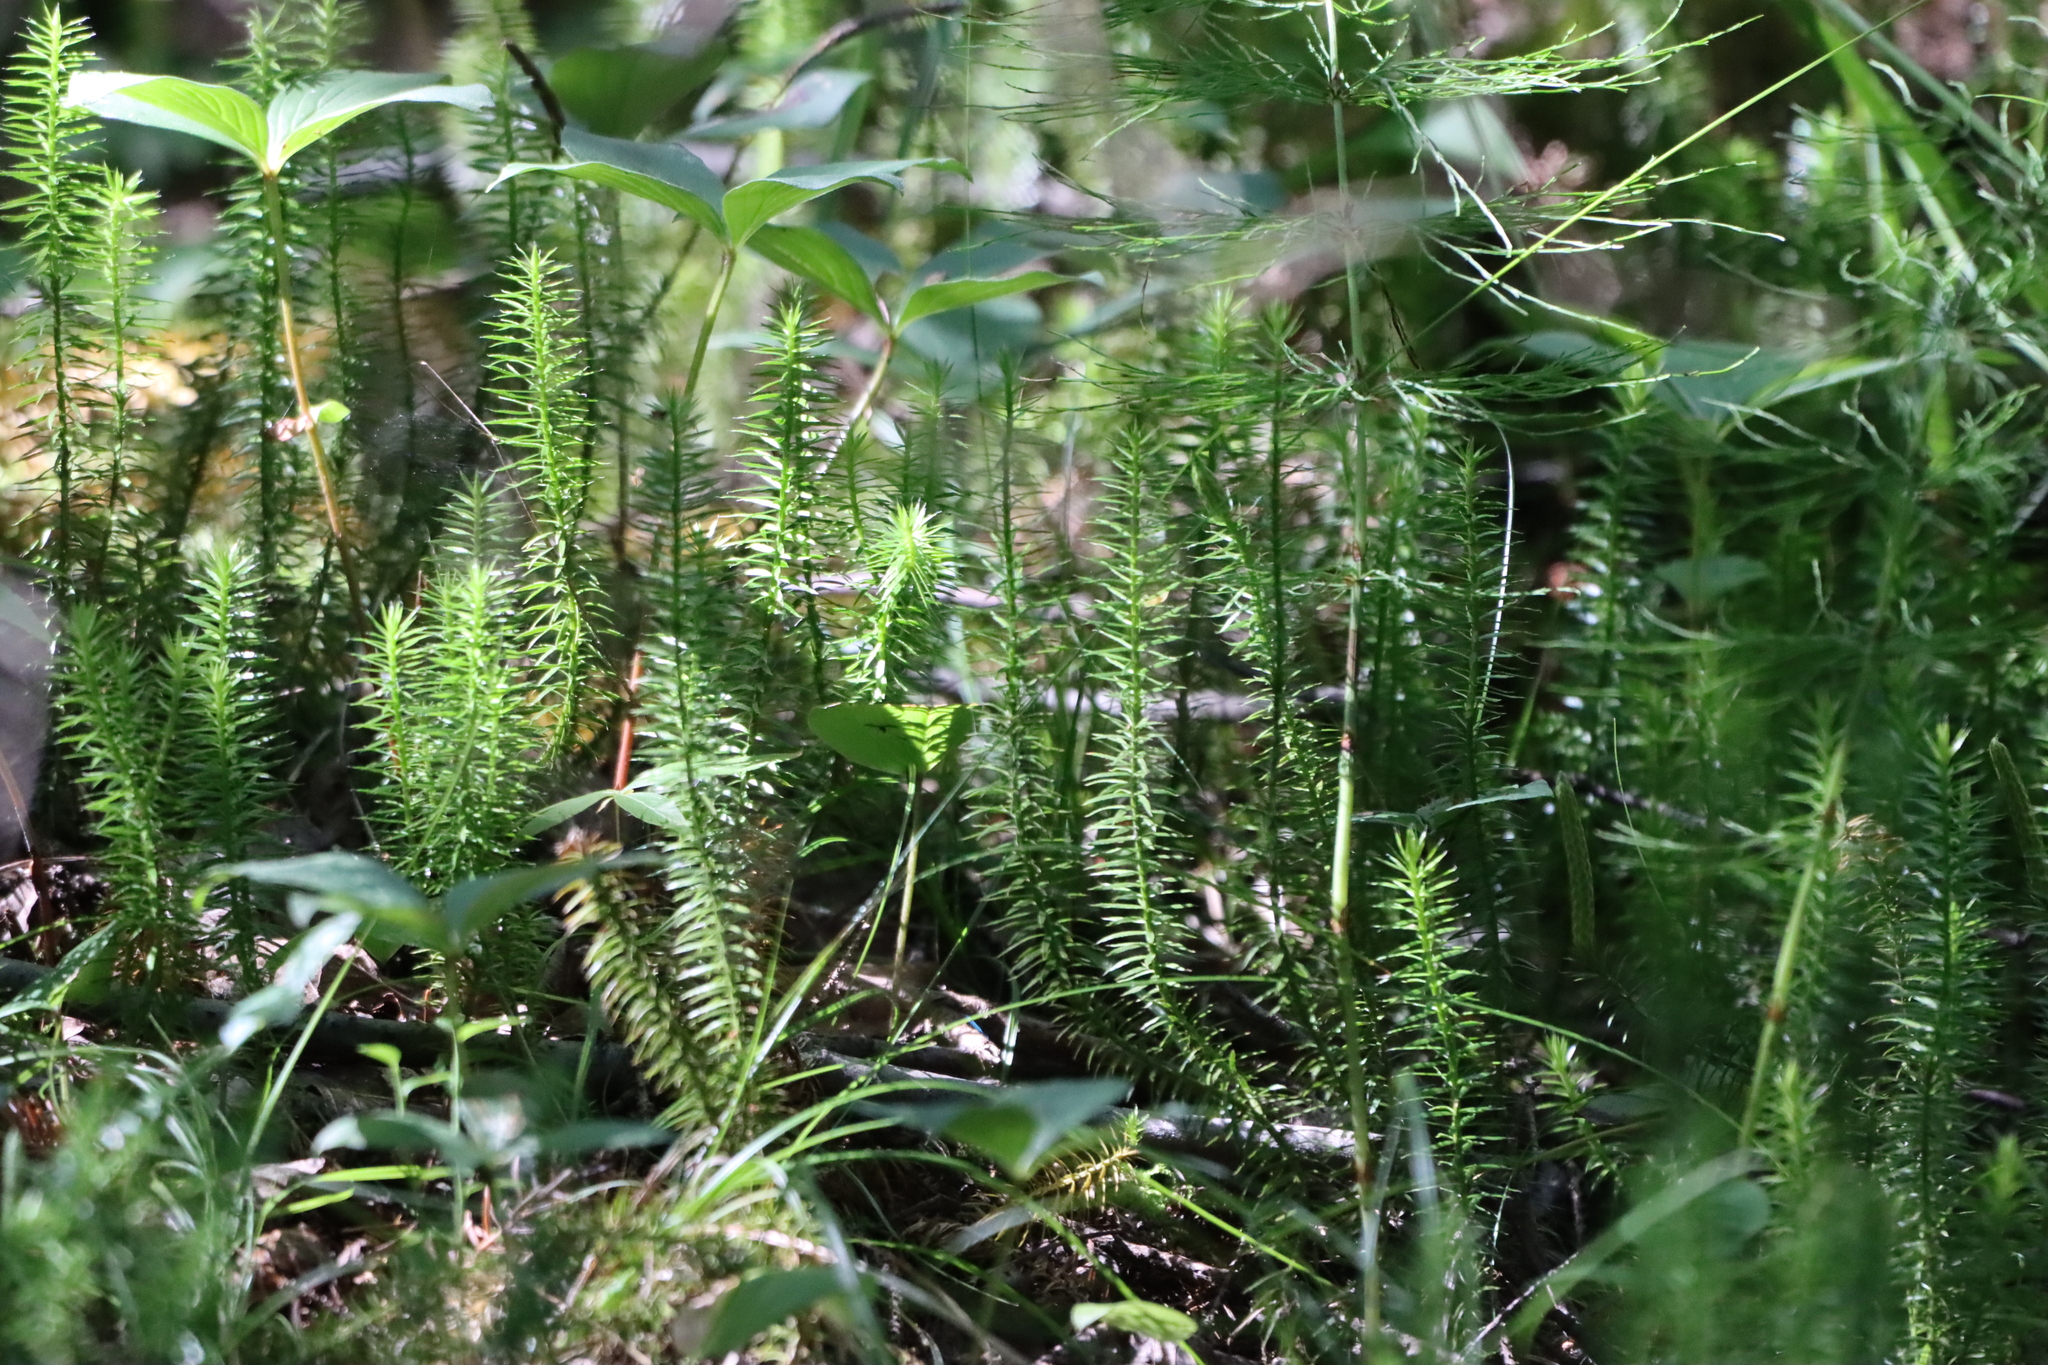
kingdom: Plantae
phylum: Tracheophyta
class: Lycopodiopsida
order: Lycopodiales
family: Lycopodiaceae
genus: Spinulum
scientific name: Spinulum annotinum
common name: Interrupted club-moss
